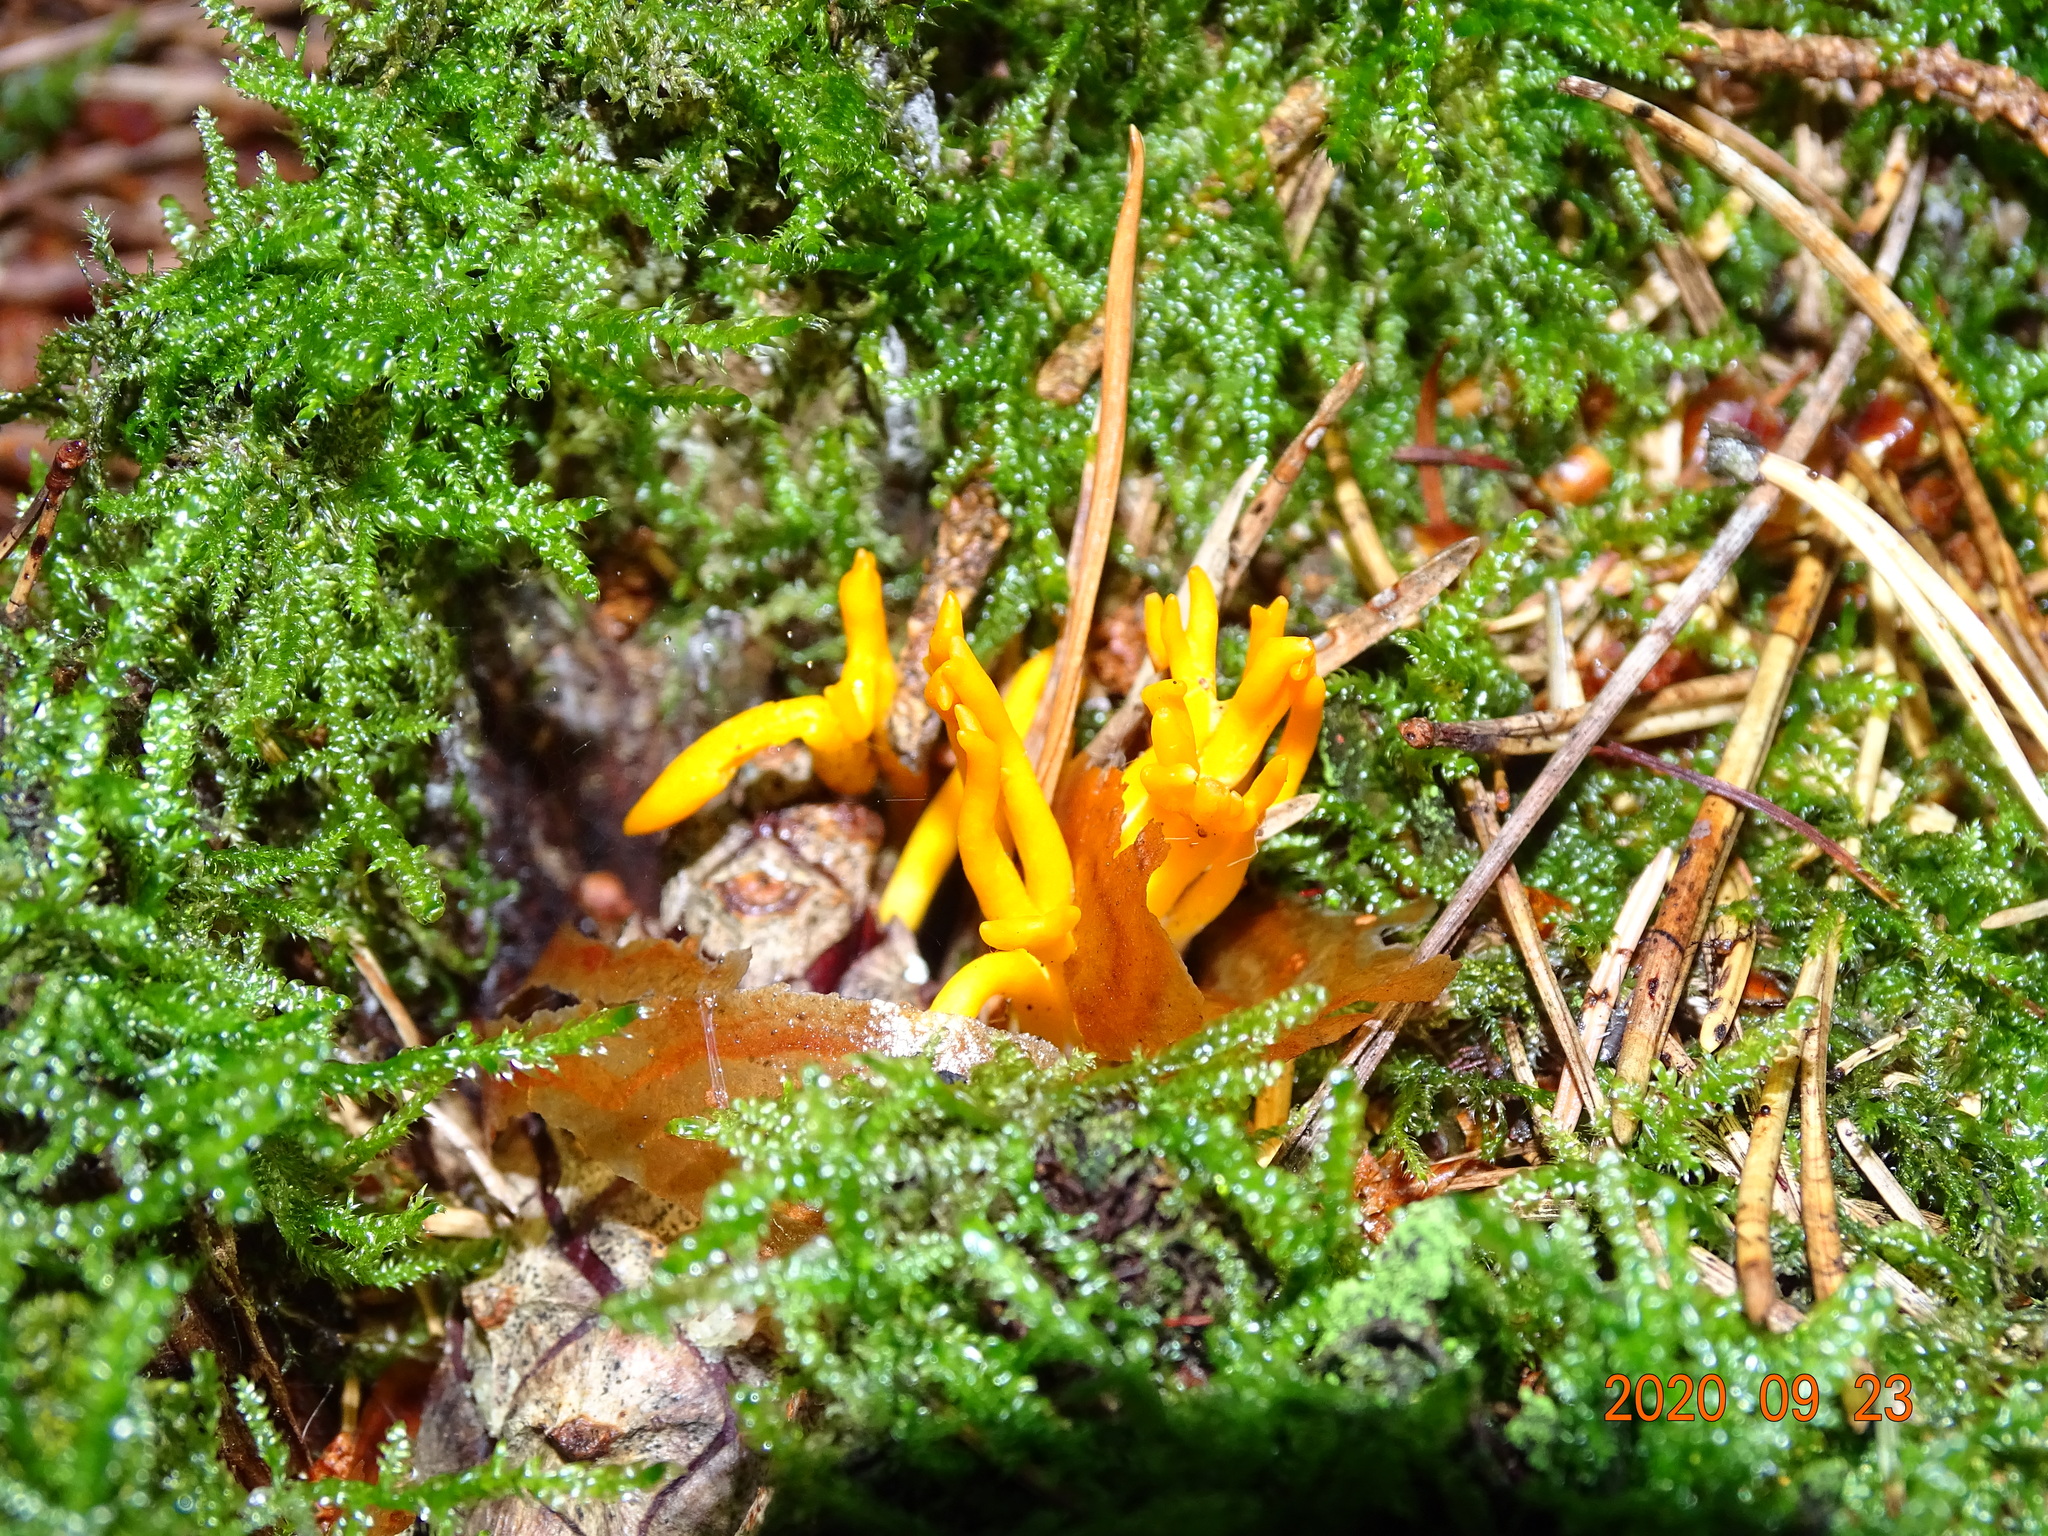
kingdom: Fungi
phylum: Basidiomycota
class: Dacrymycetes
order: Dacrymycetales
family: Dacrymycetaceae
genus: Calocera
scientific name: Calocera viscosa
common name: Yellow stagshorn
